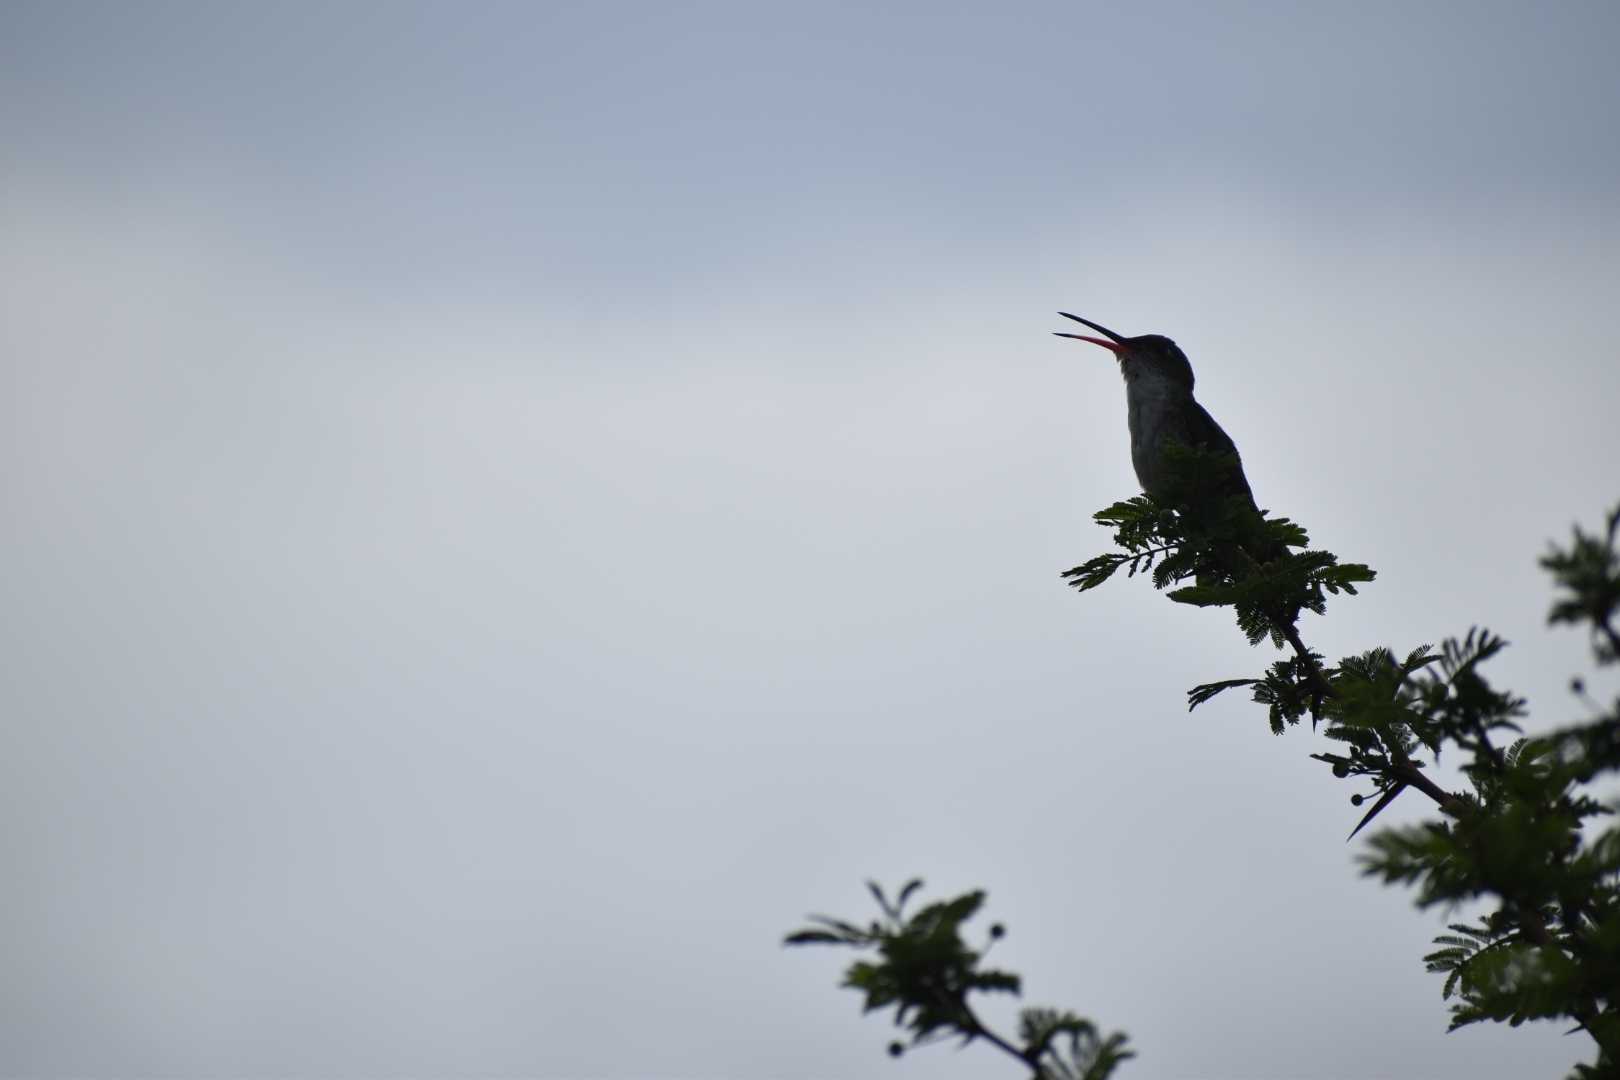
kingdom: Animalia
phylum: Chordata
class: Aves
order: Apodiformes
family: Trochilidae
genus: Patagona
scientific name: Patagona gigas
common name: Giant hummingbird
